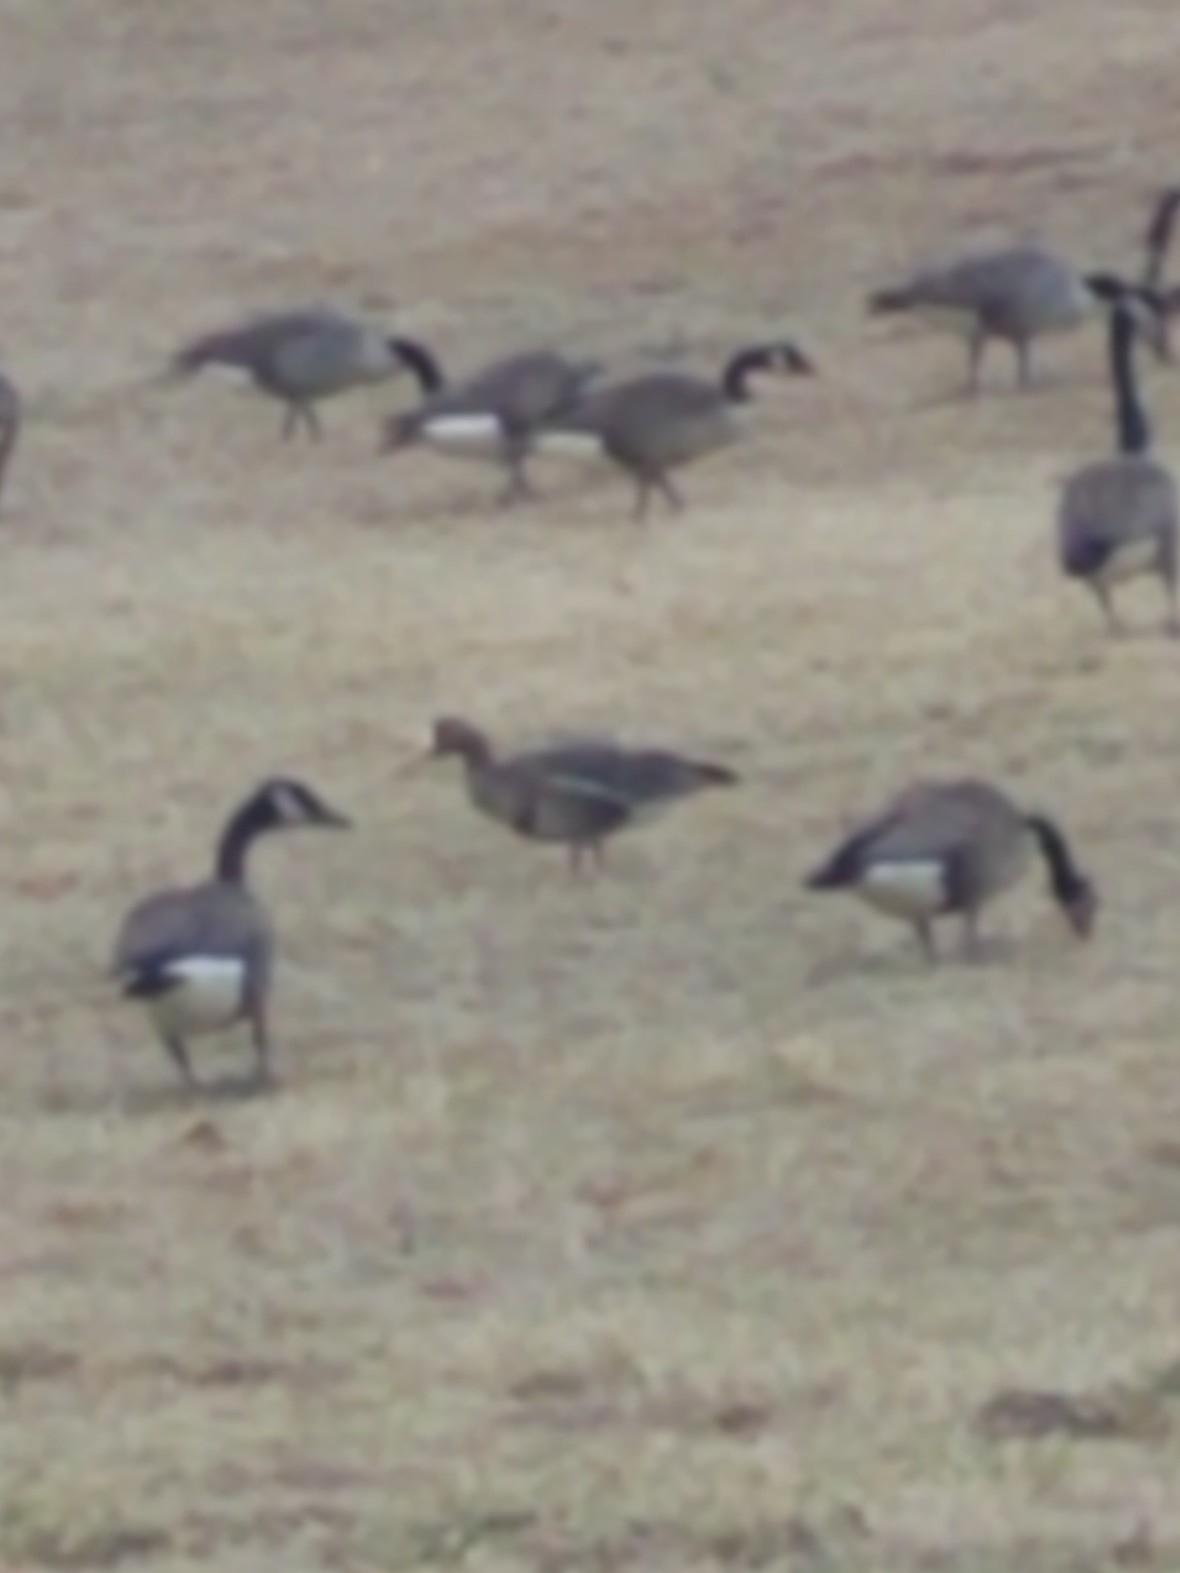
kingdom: Animalia
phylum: Chordata
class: Aves
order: Anseriformes
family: Anatidae
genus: Anser
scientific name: Anser albifrons
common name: Greater white-fronted goose
